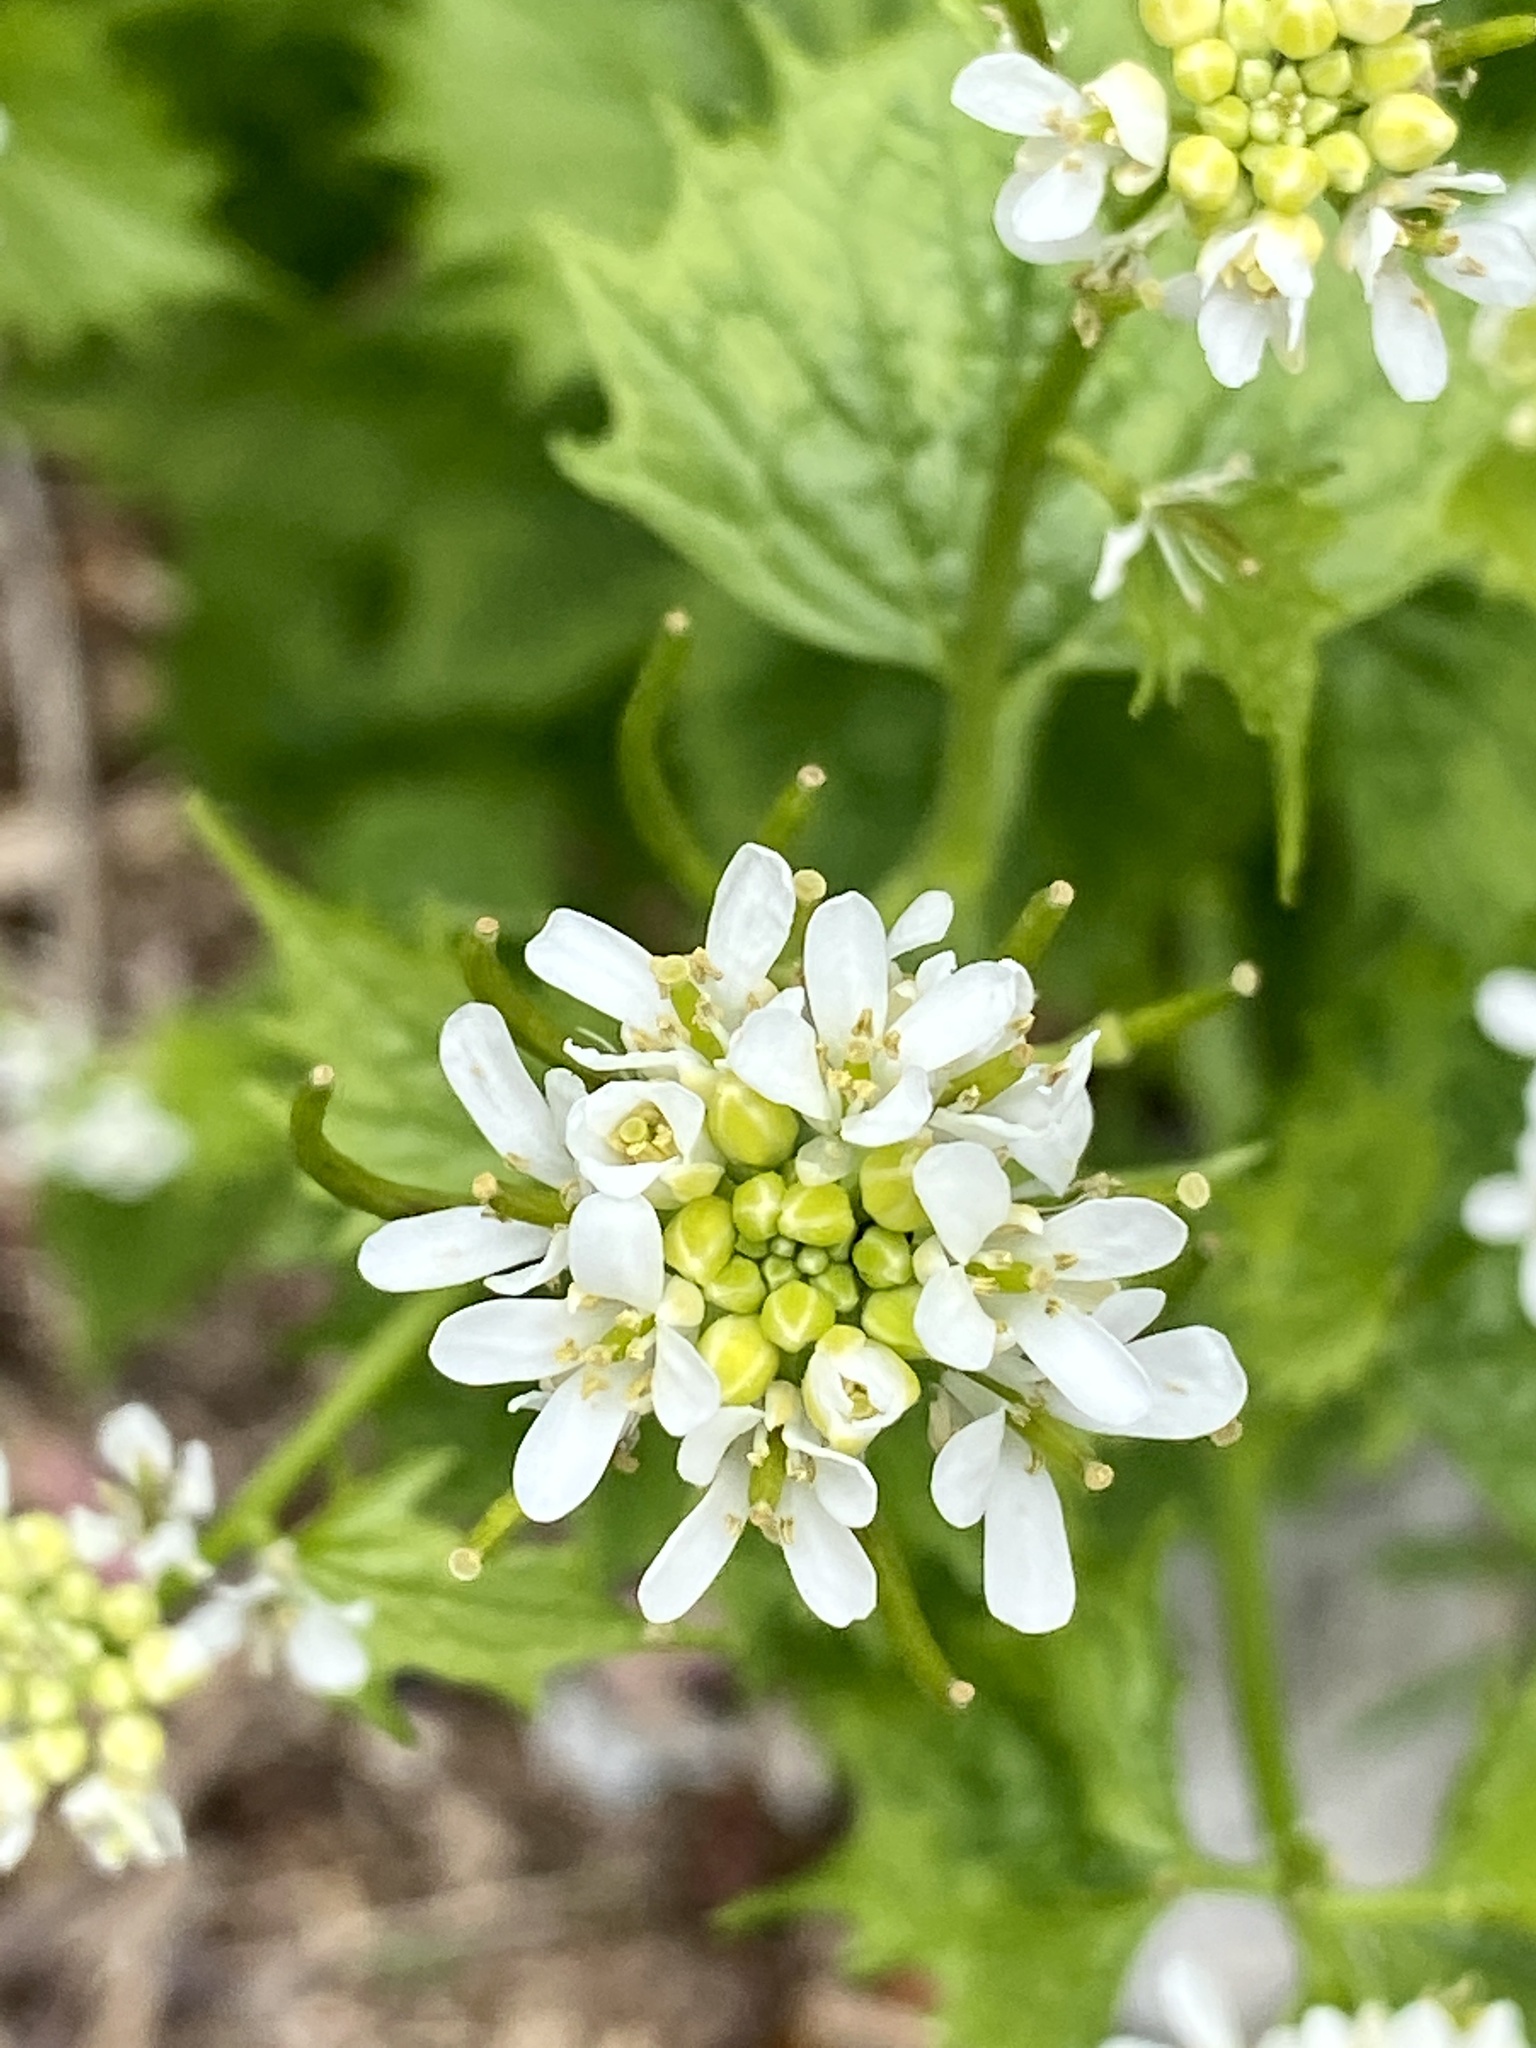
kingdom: Plantae
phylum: Tracheophyta
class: Magnoliopsida
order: Brassicales
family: Brassicaceae
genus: Alliaria
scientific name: Alliaria petiolata
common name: Garlic mustard
